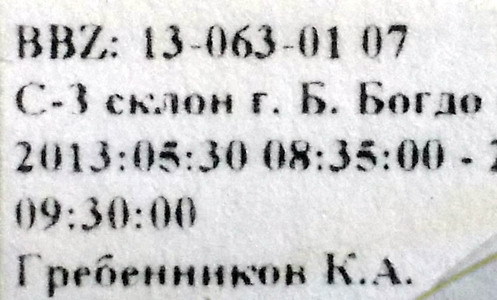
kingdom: Animalia
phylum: Arthropoda
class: Insecta
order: Hemiptera
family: Miridae
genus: Chorosomella
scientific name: Chorosomella jakowleffi
